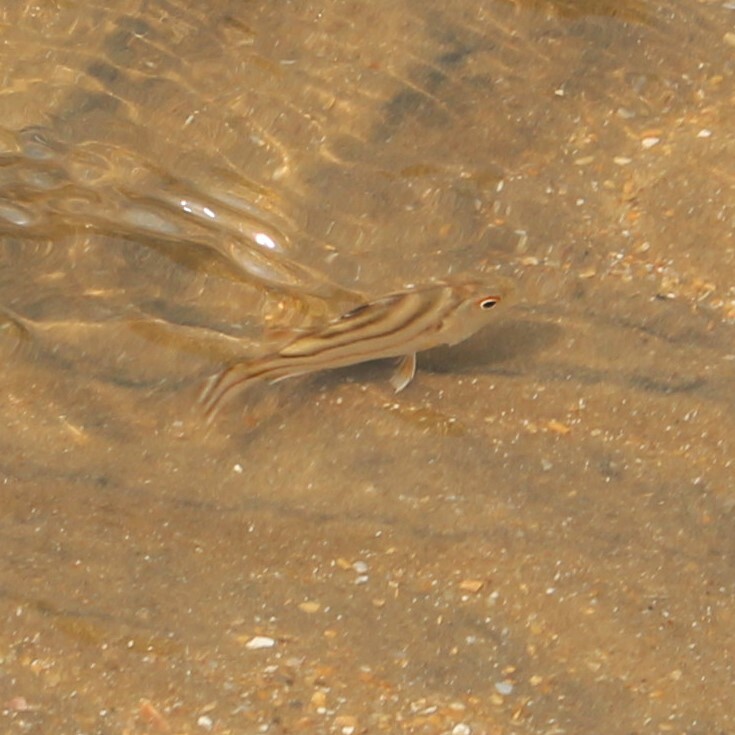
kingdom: Animalia
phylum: Chordata
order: Perciformes
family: Terapontidae
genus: Terapon
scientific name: Terapon jarbua
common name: Jarbua terapon
